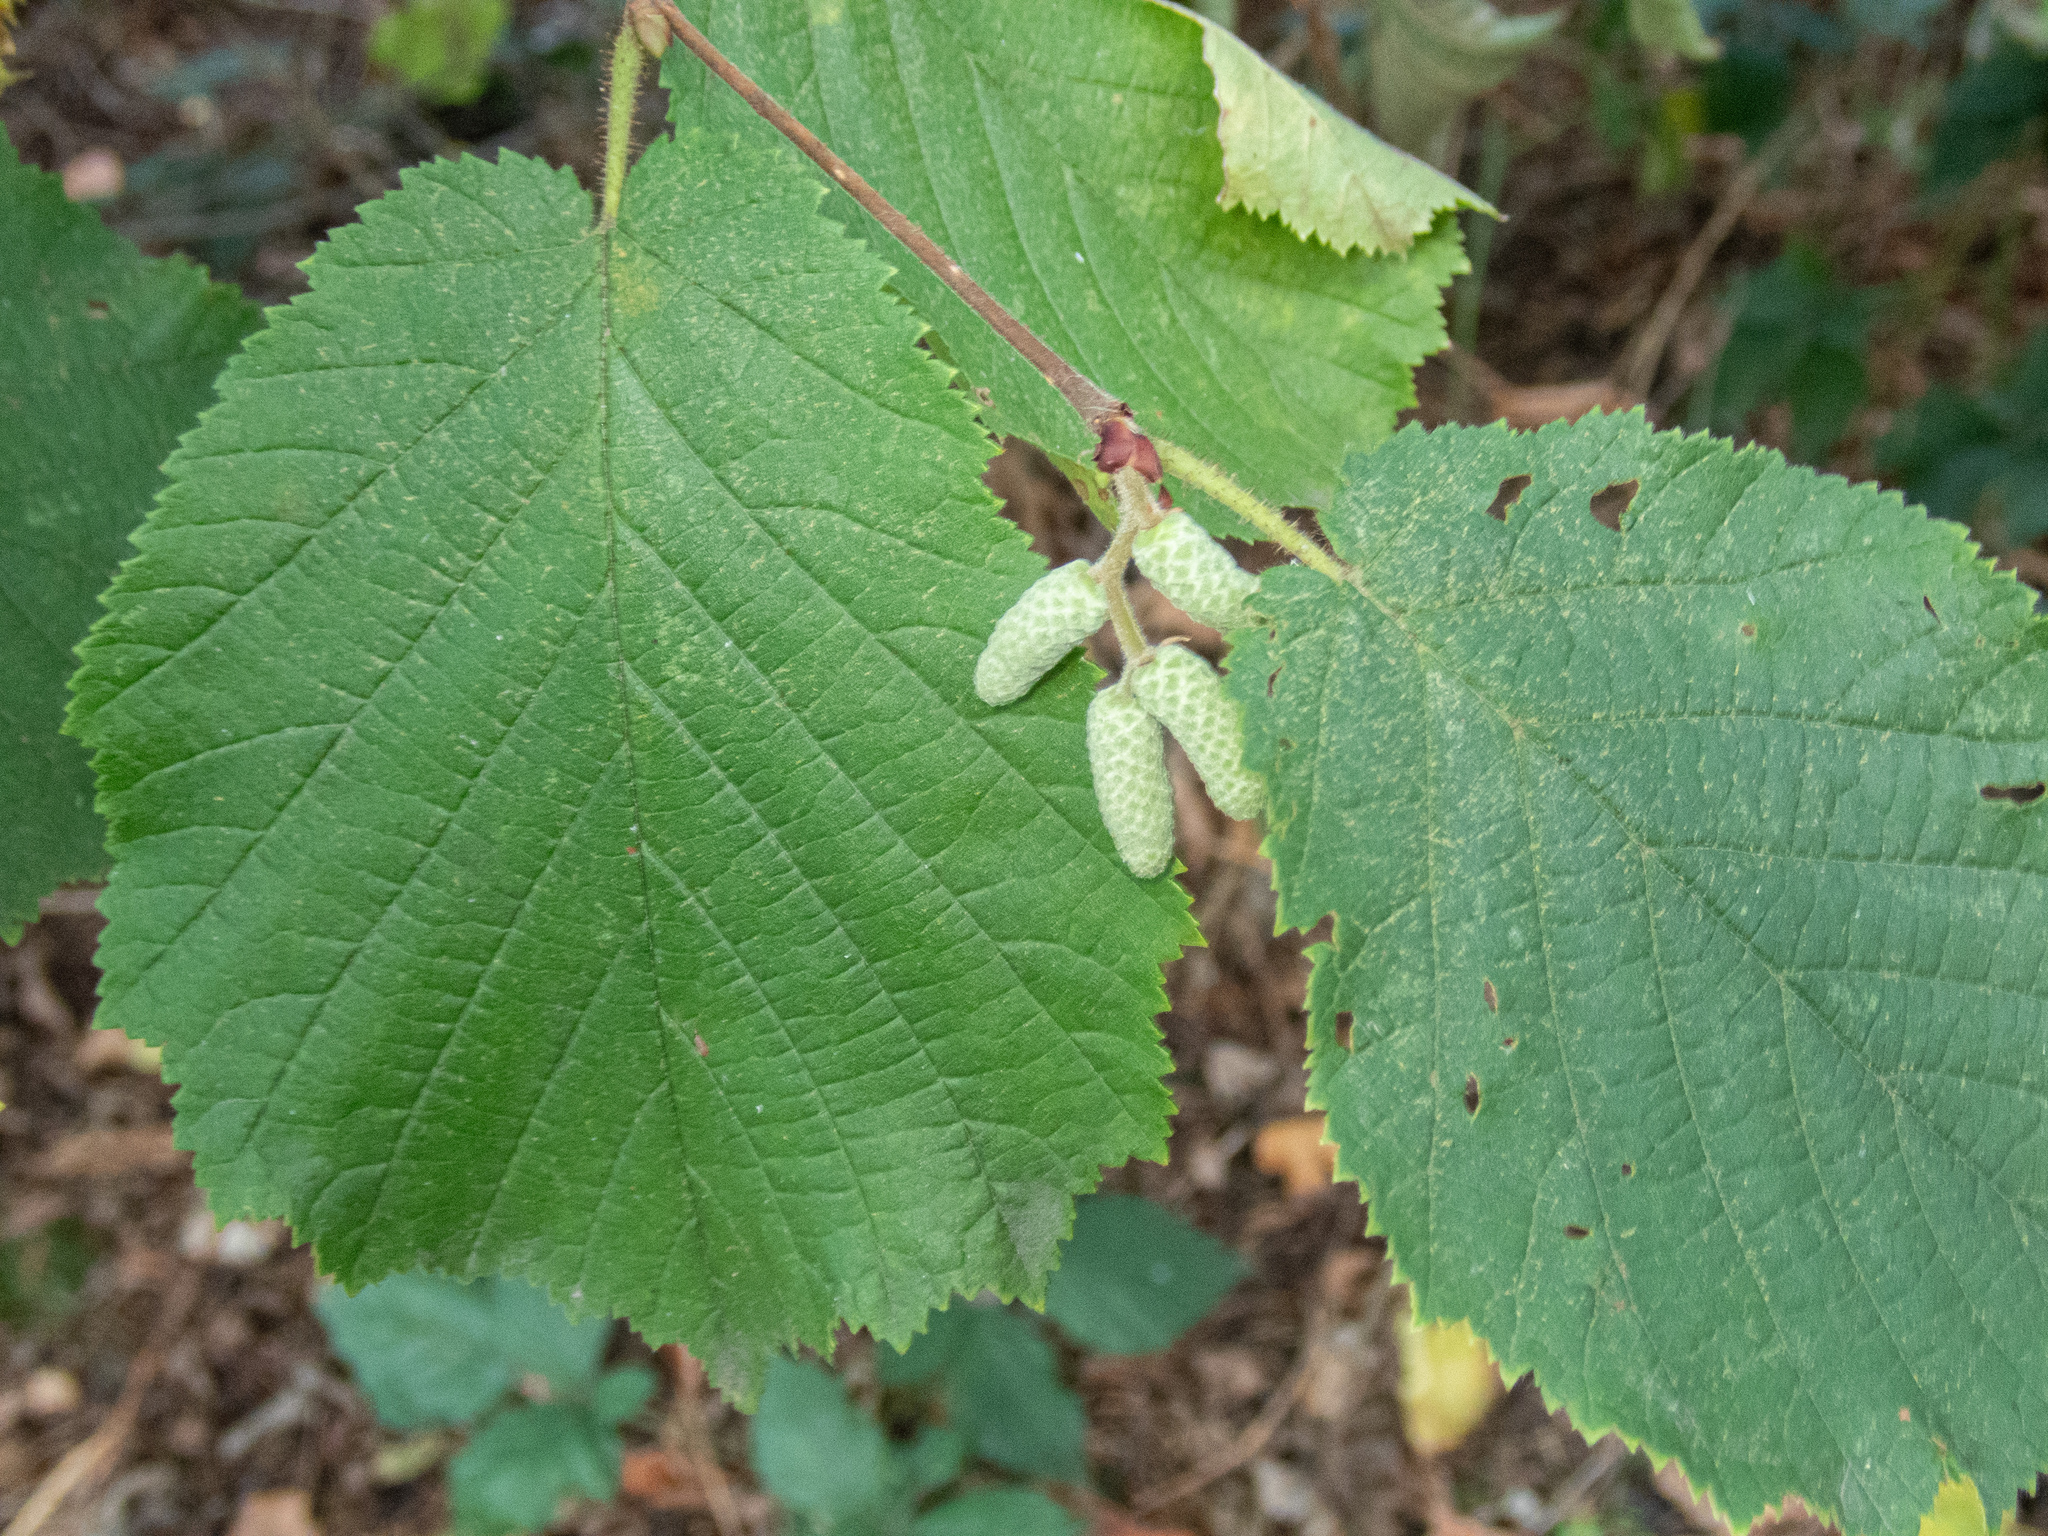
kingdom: Plantae
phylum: Tracheophyta
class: Magnoliopsida
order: Fagales
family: Betulaceae
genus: Corylus
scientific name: Corylus avellana
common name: European hazel
